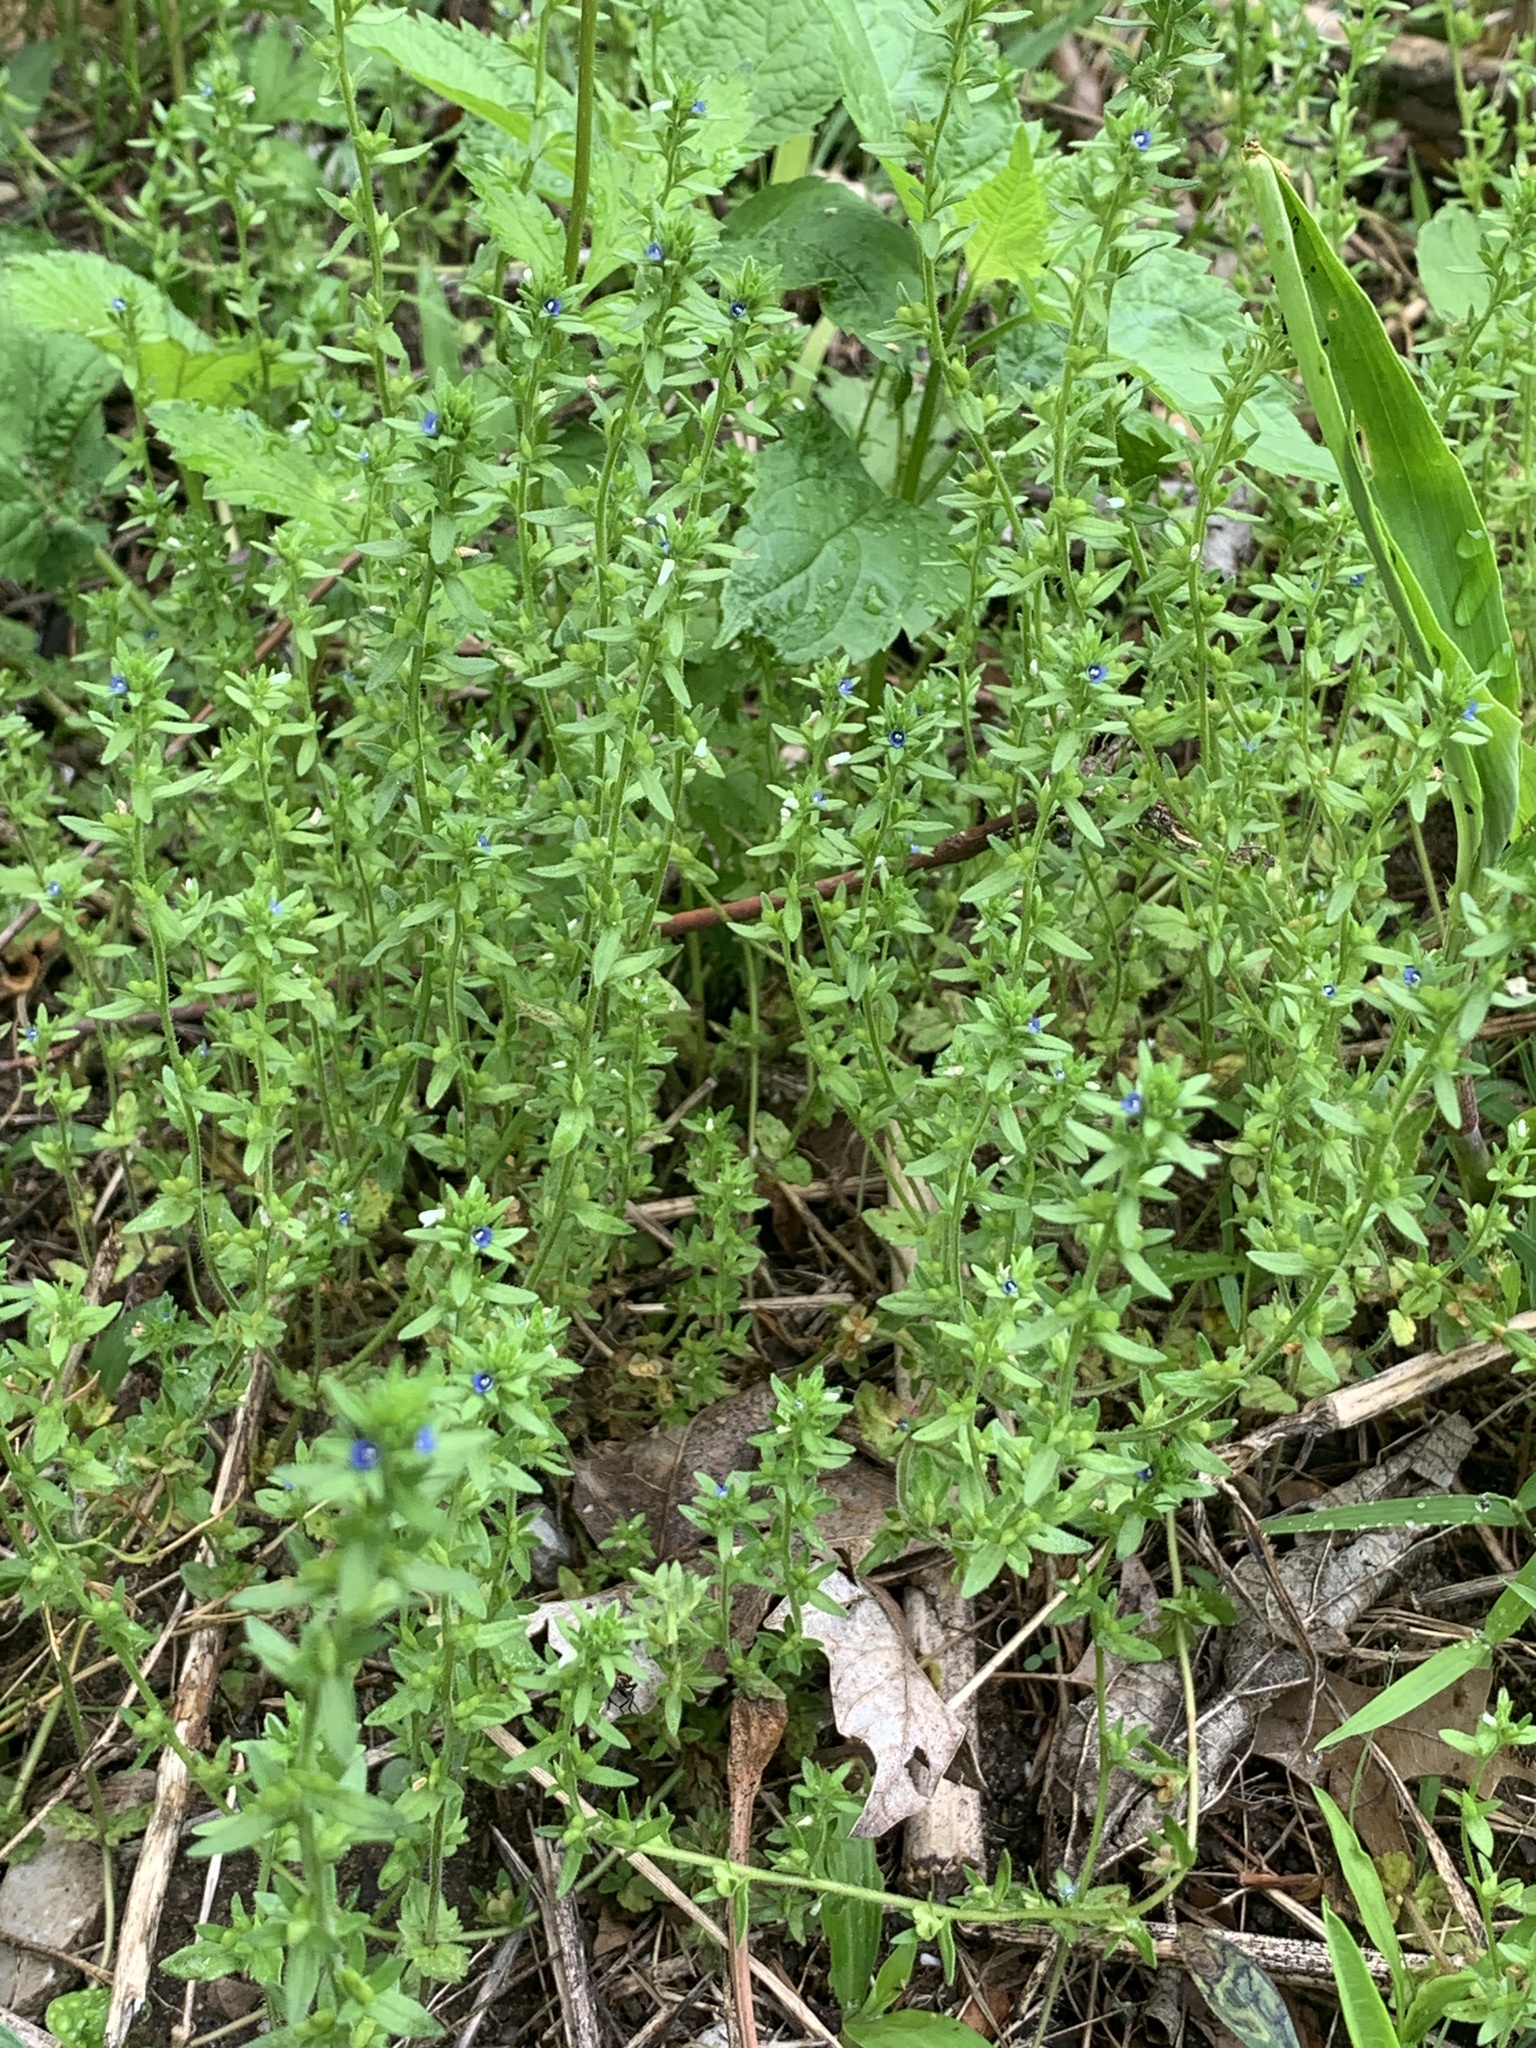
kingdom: Plantae
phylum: Tracheophyta
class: Magnoliopsida
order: Lamiales
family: Plantaginaceae
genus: Veronica
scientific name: Veronica arvensis
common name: Corn speedwell
